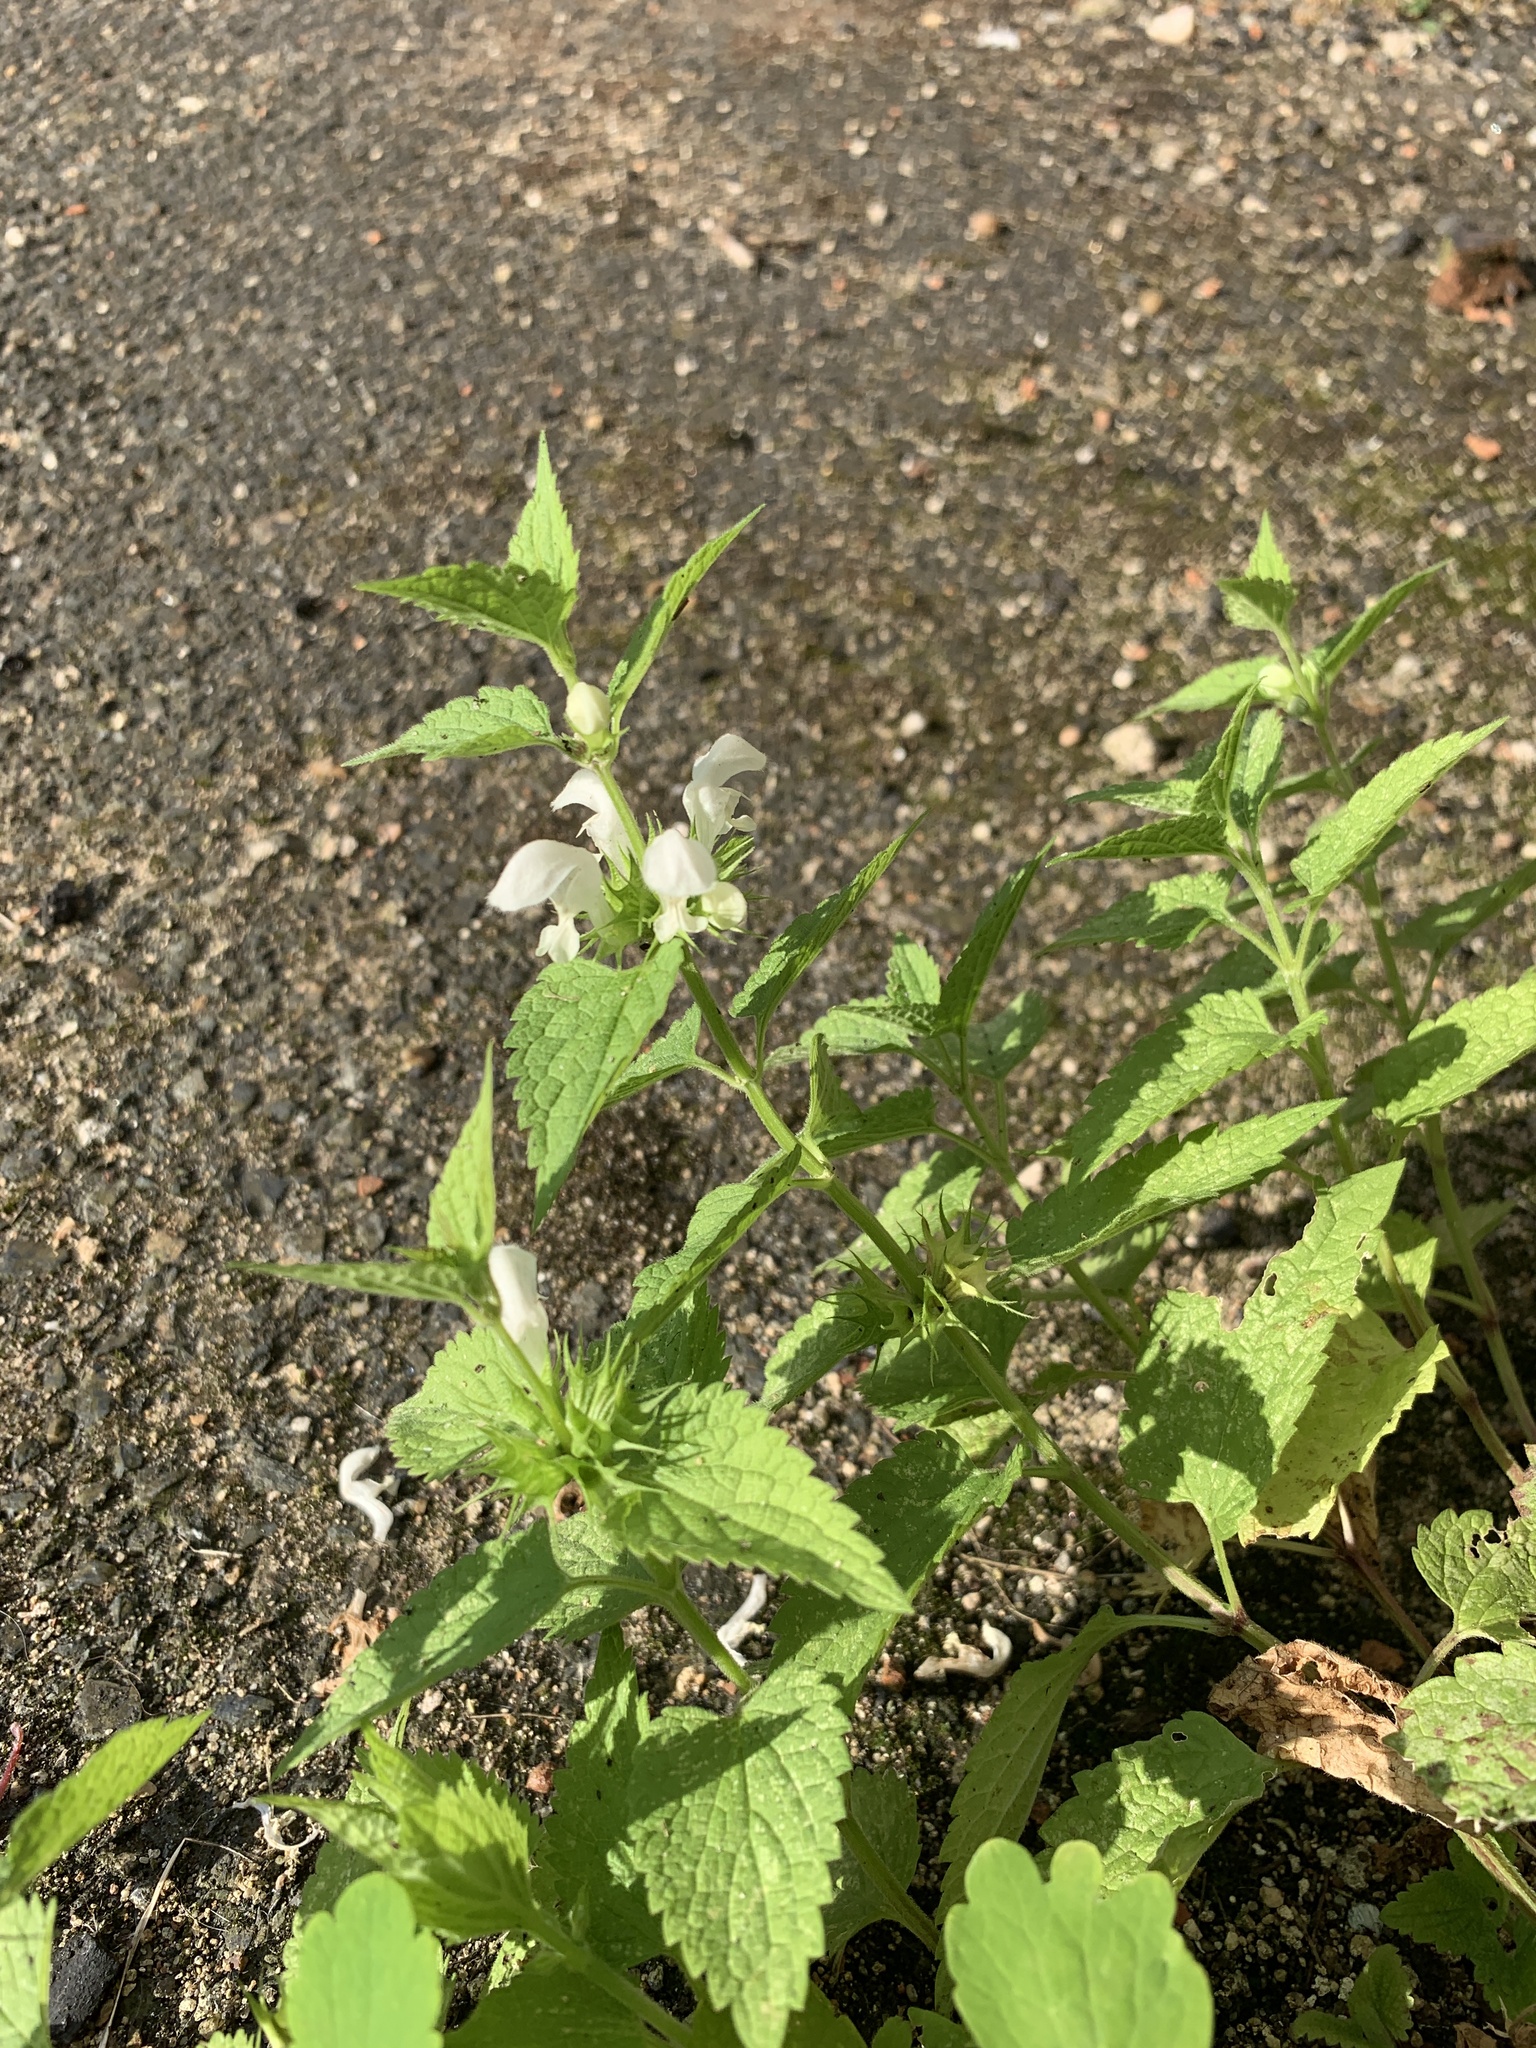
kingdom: Plantae
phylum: Tracheophyta
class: Magnoliopsida
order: Lamiales
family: Lamiaceae
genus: Lamium
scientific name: Lamium album
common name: White dead-nettle
